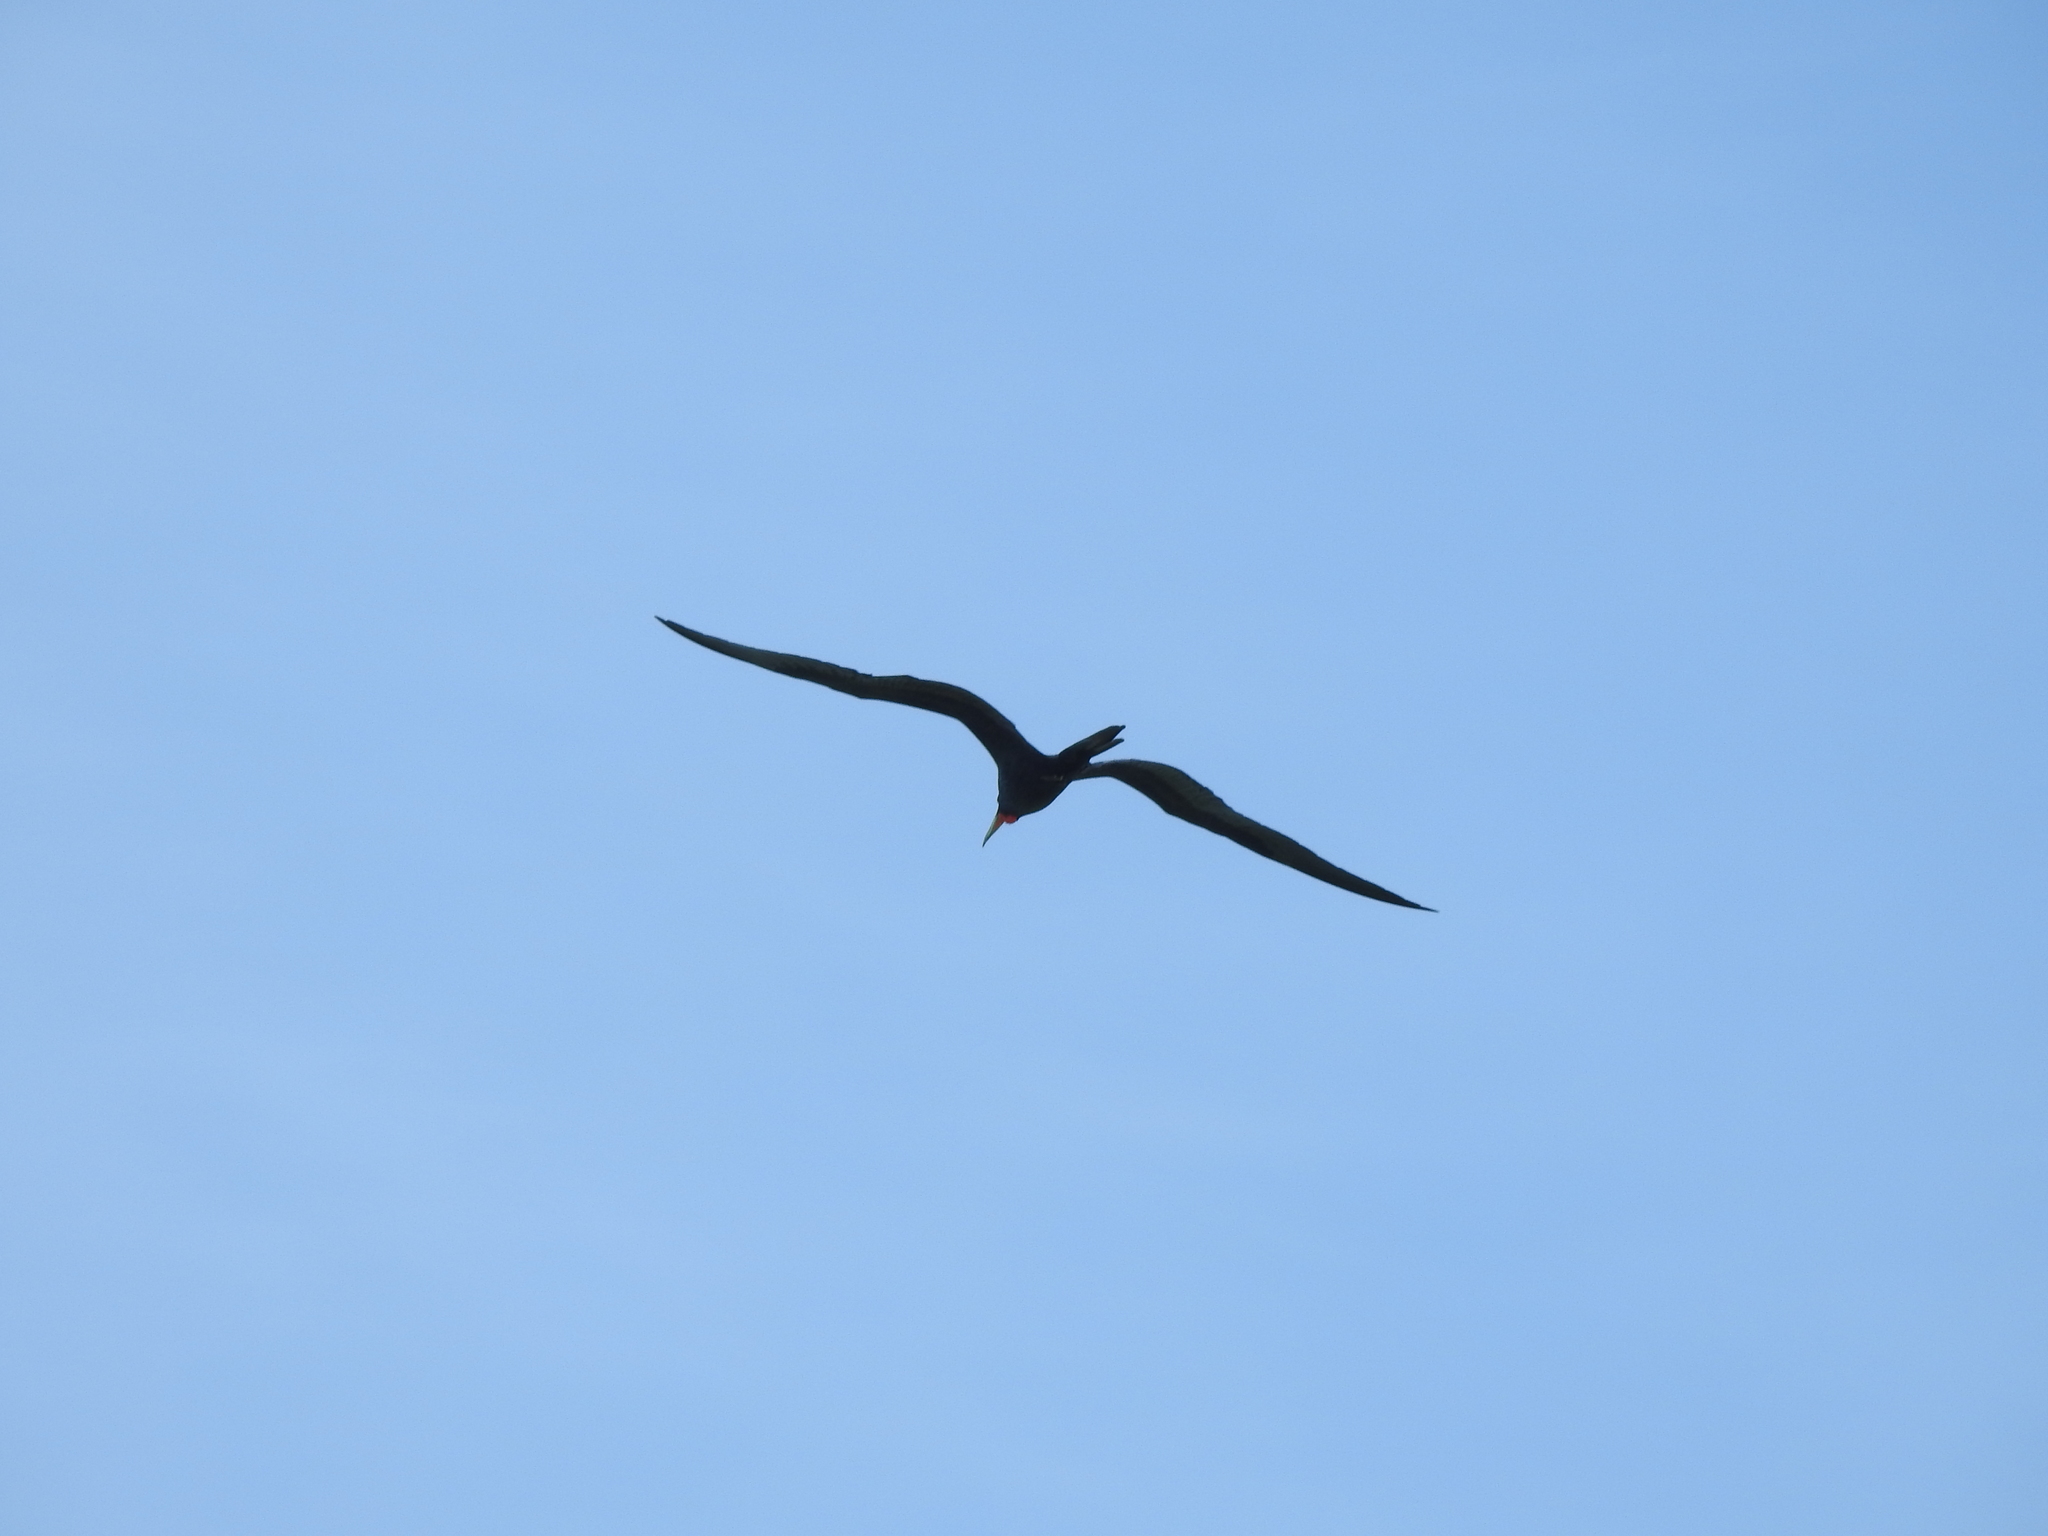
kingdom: Animalia
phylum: Chordata
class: Aves
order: Suliformes
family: Fregatidae
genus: Fregata
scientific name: Fregata magnificens
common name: Magnificent frigatebird
